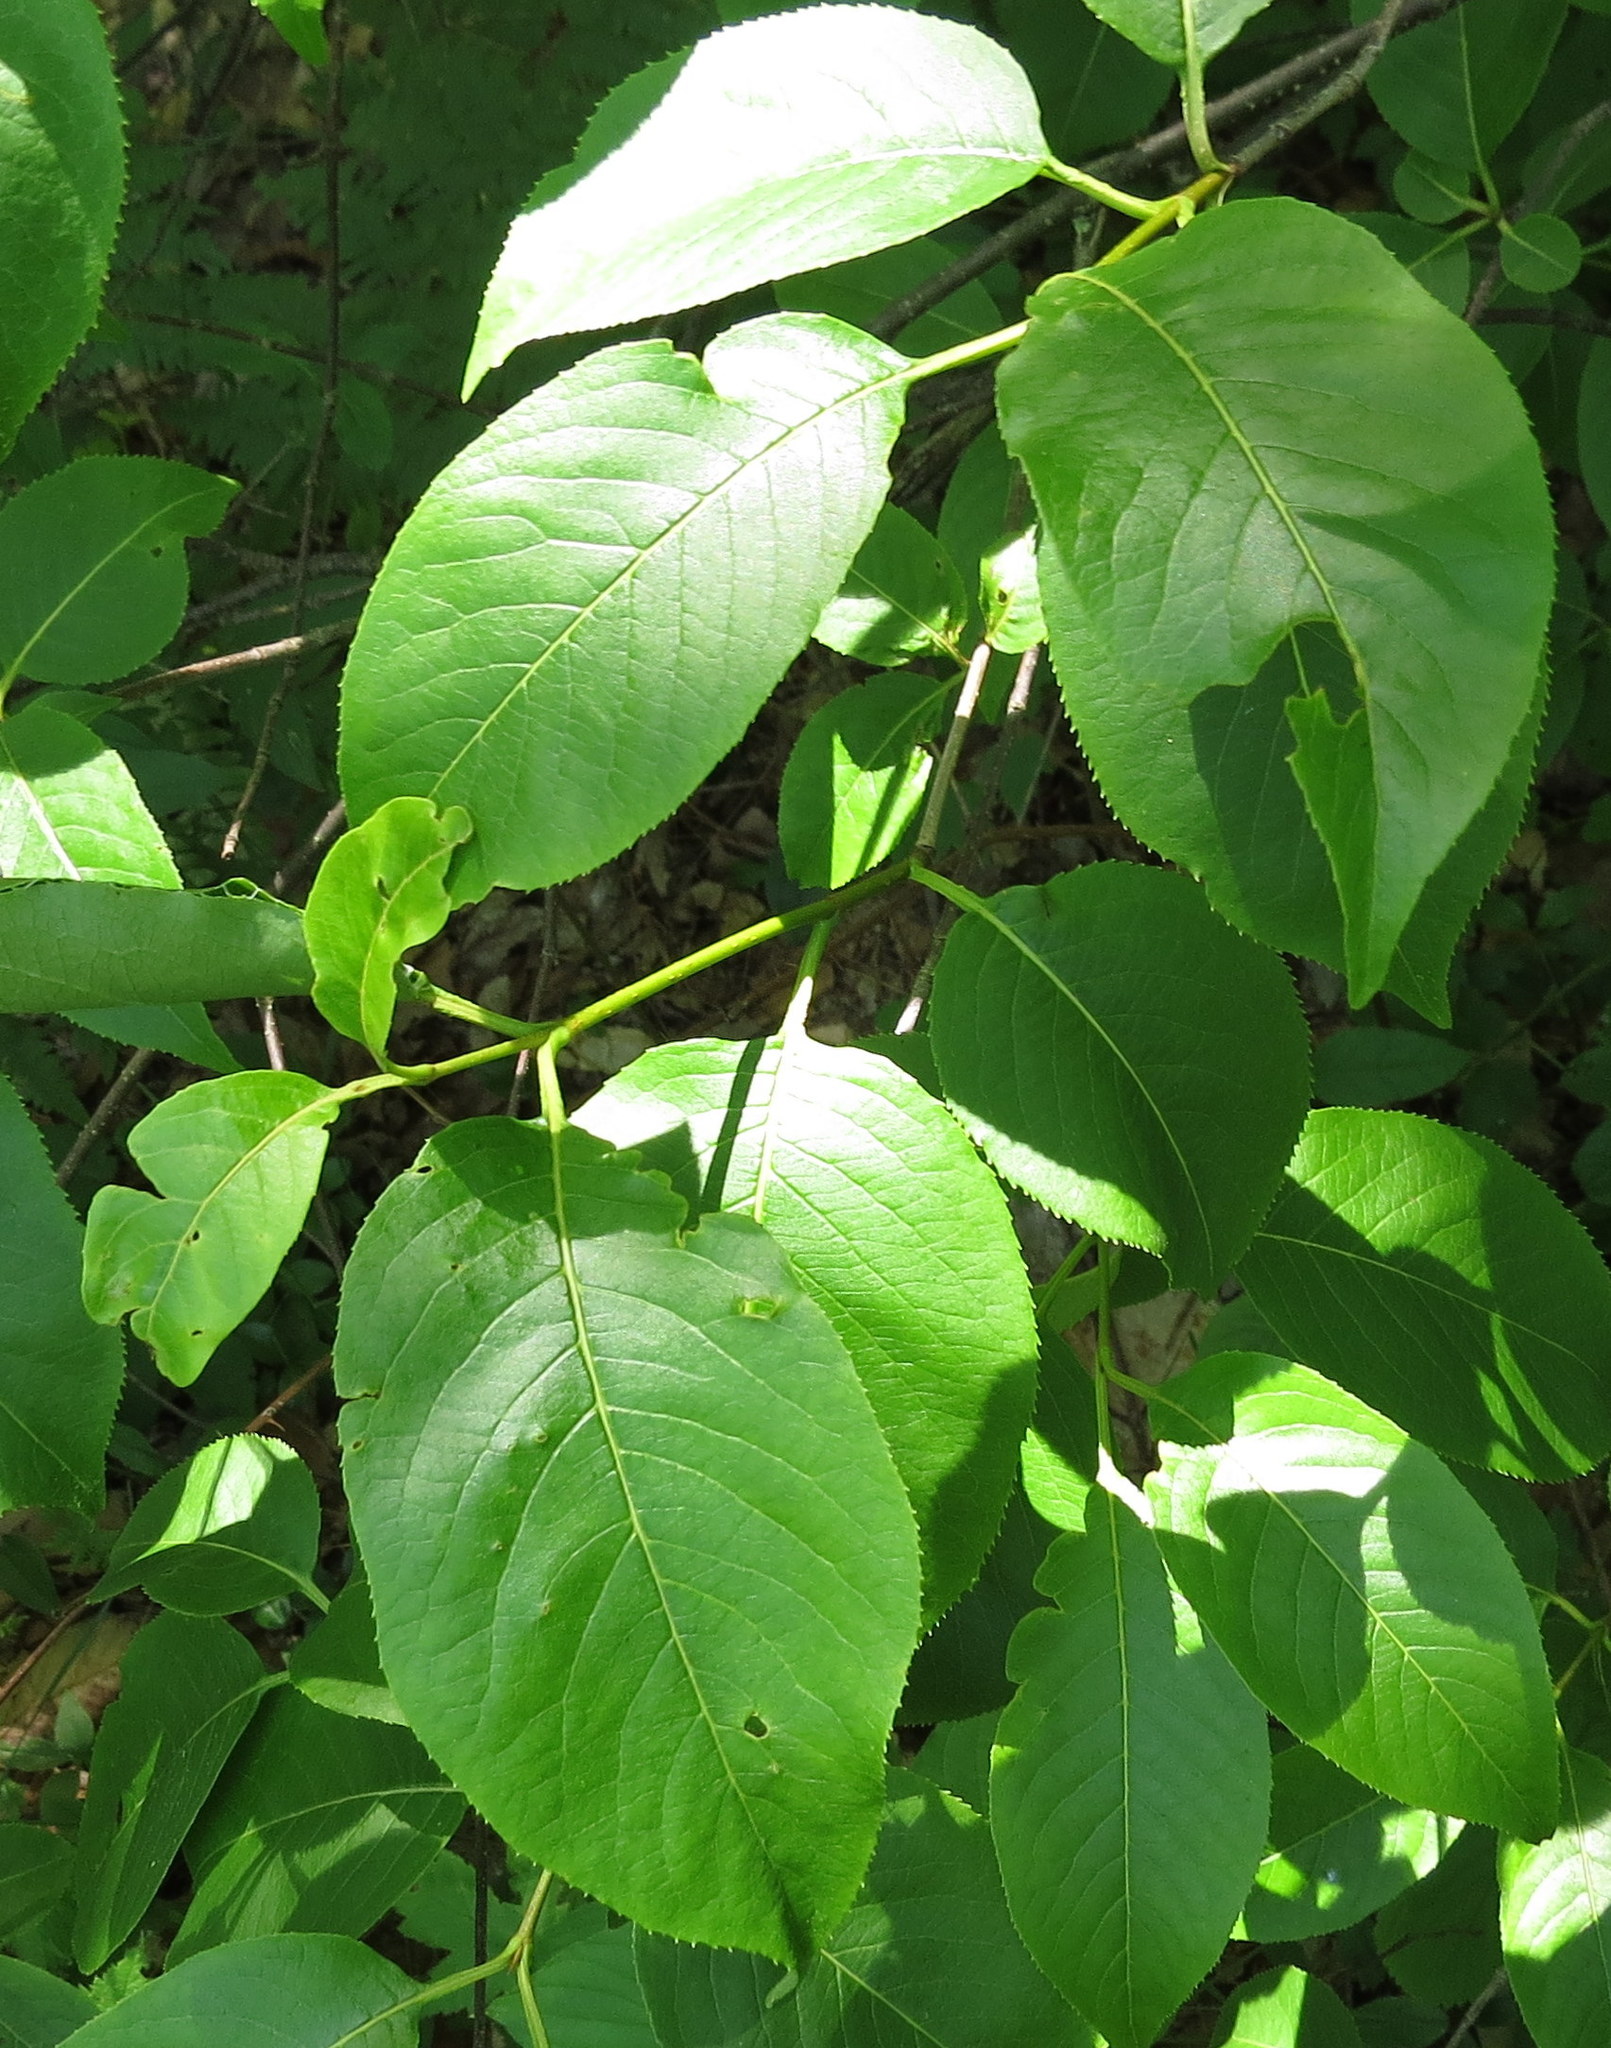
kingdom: Plantae
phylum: Tracheophyta
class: Magnoliopsida
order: Dipsacales
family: Viburnaceae
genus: Viburnum
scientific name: Viburnum lentago
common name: Black haw
